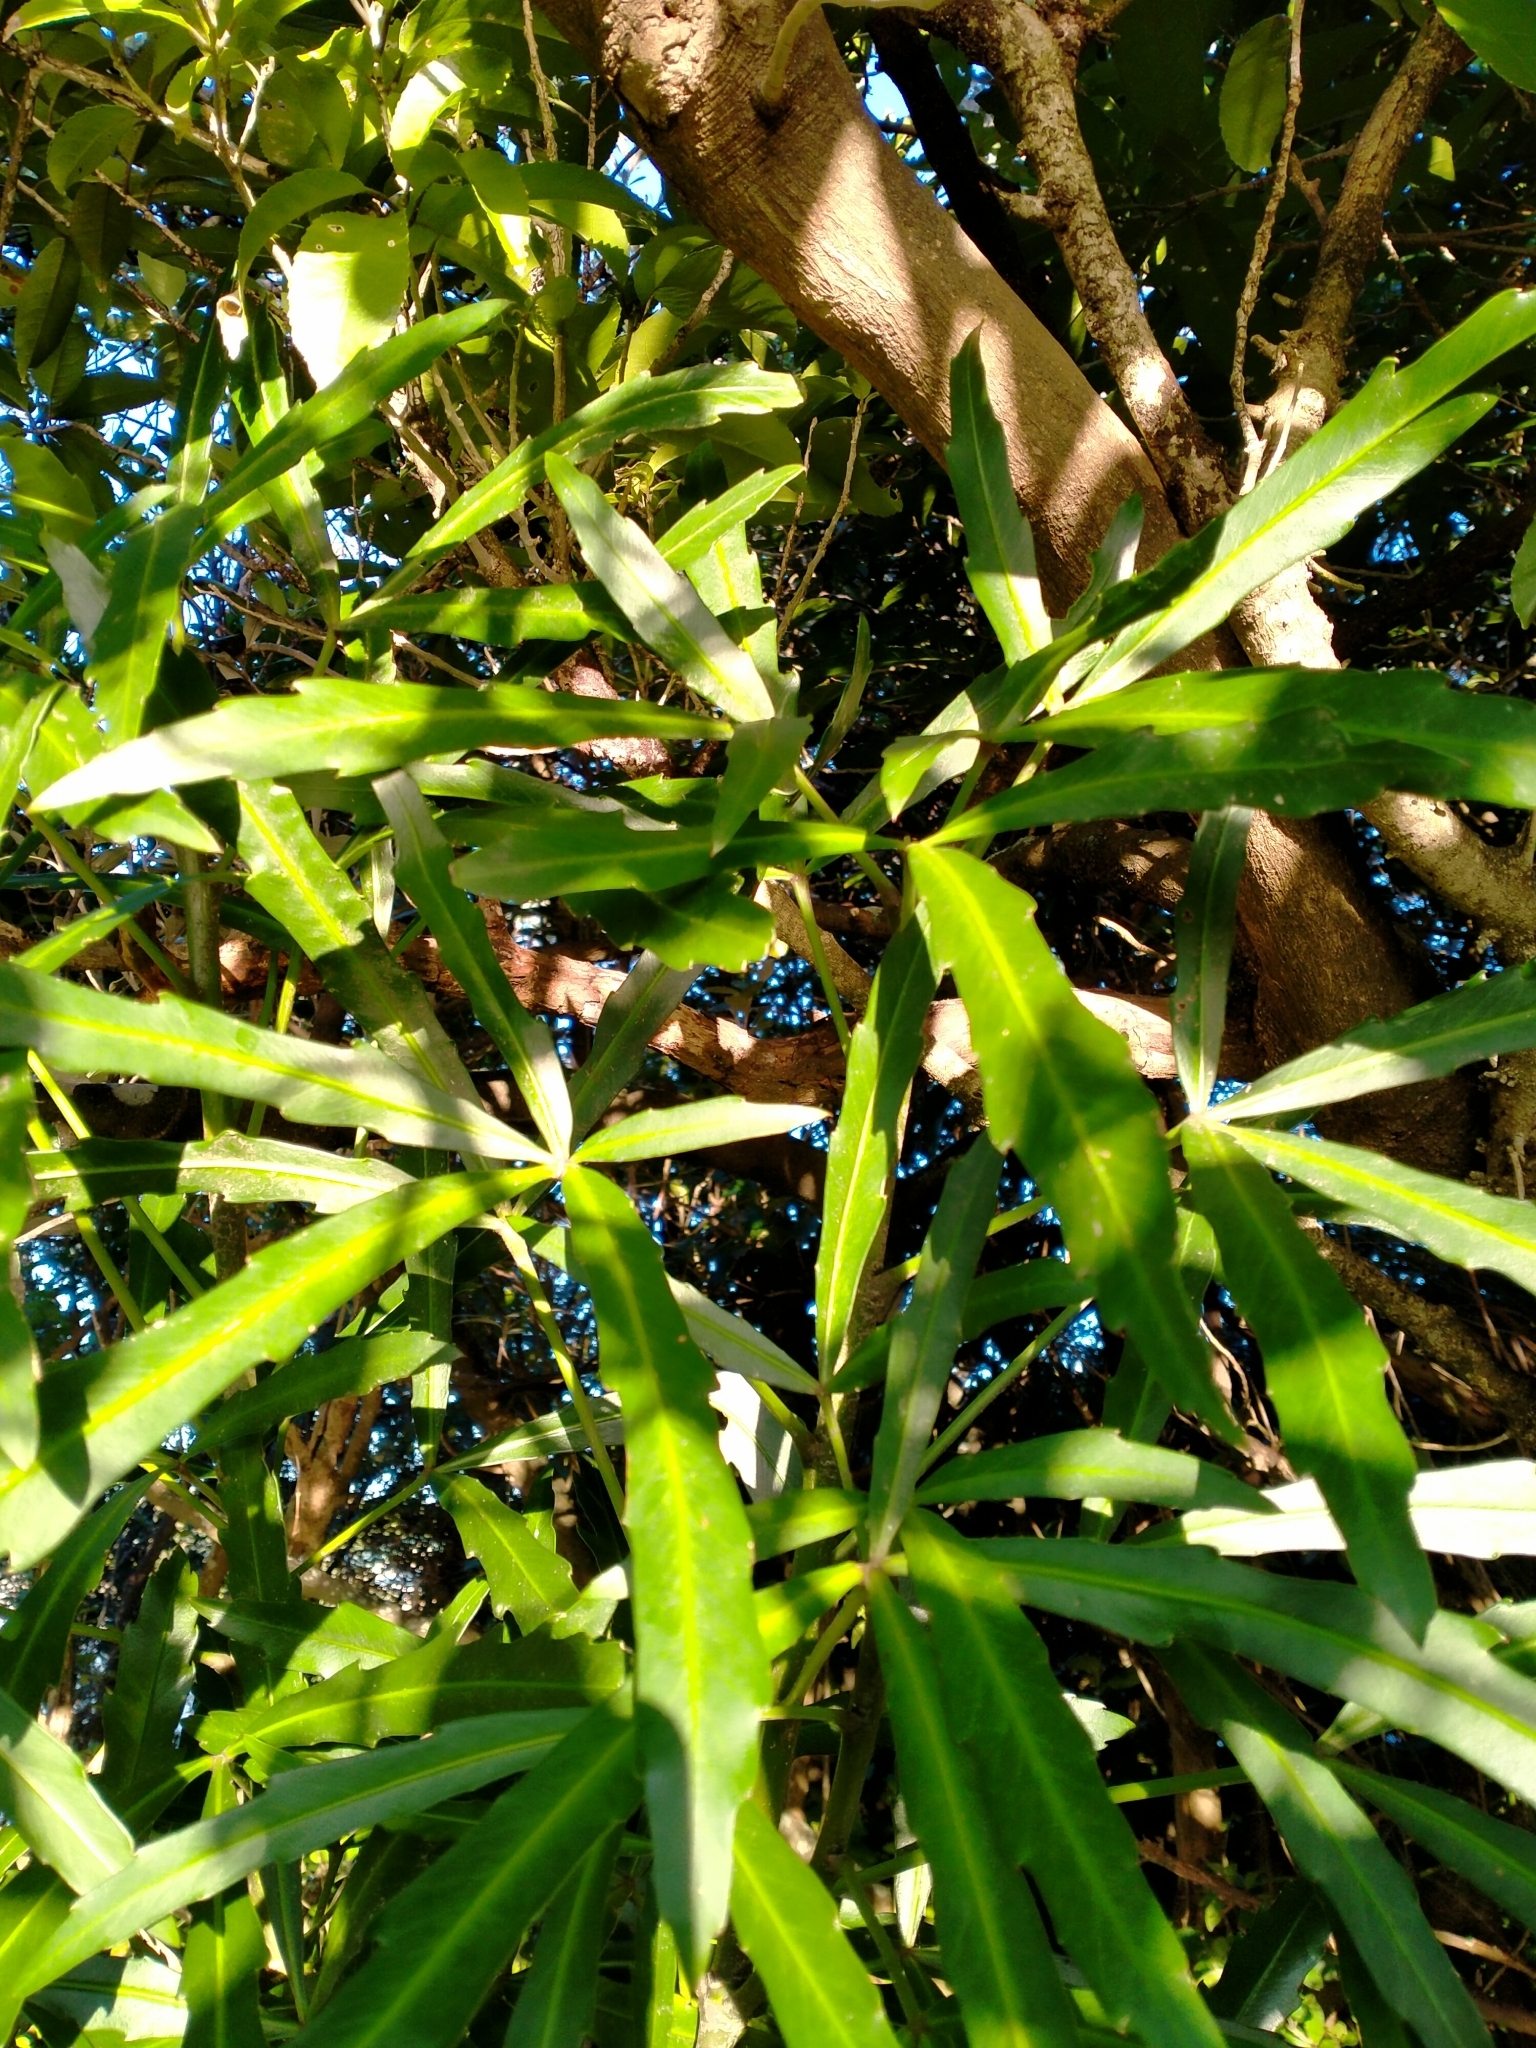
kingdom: Plantae
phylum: Tracheophyta
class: Magnoliopsida
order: Apiales
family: Araliaceae
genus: Pseudopanax
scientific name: Pseudopanax
